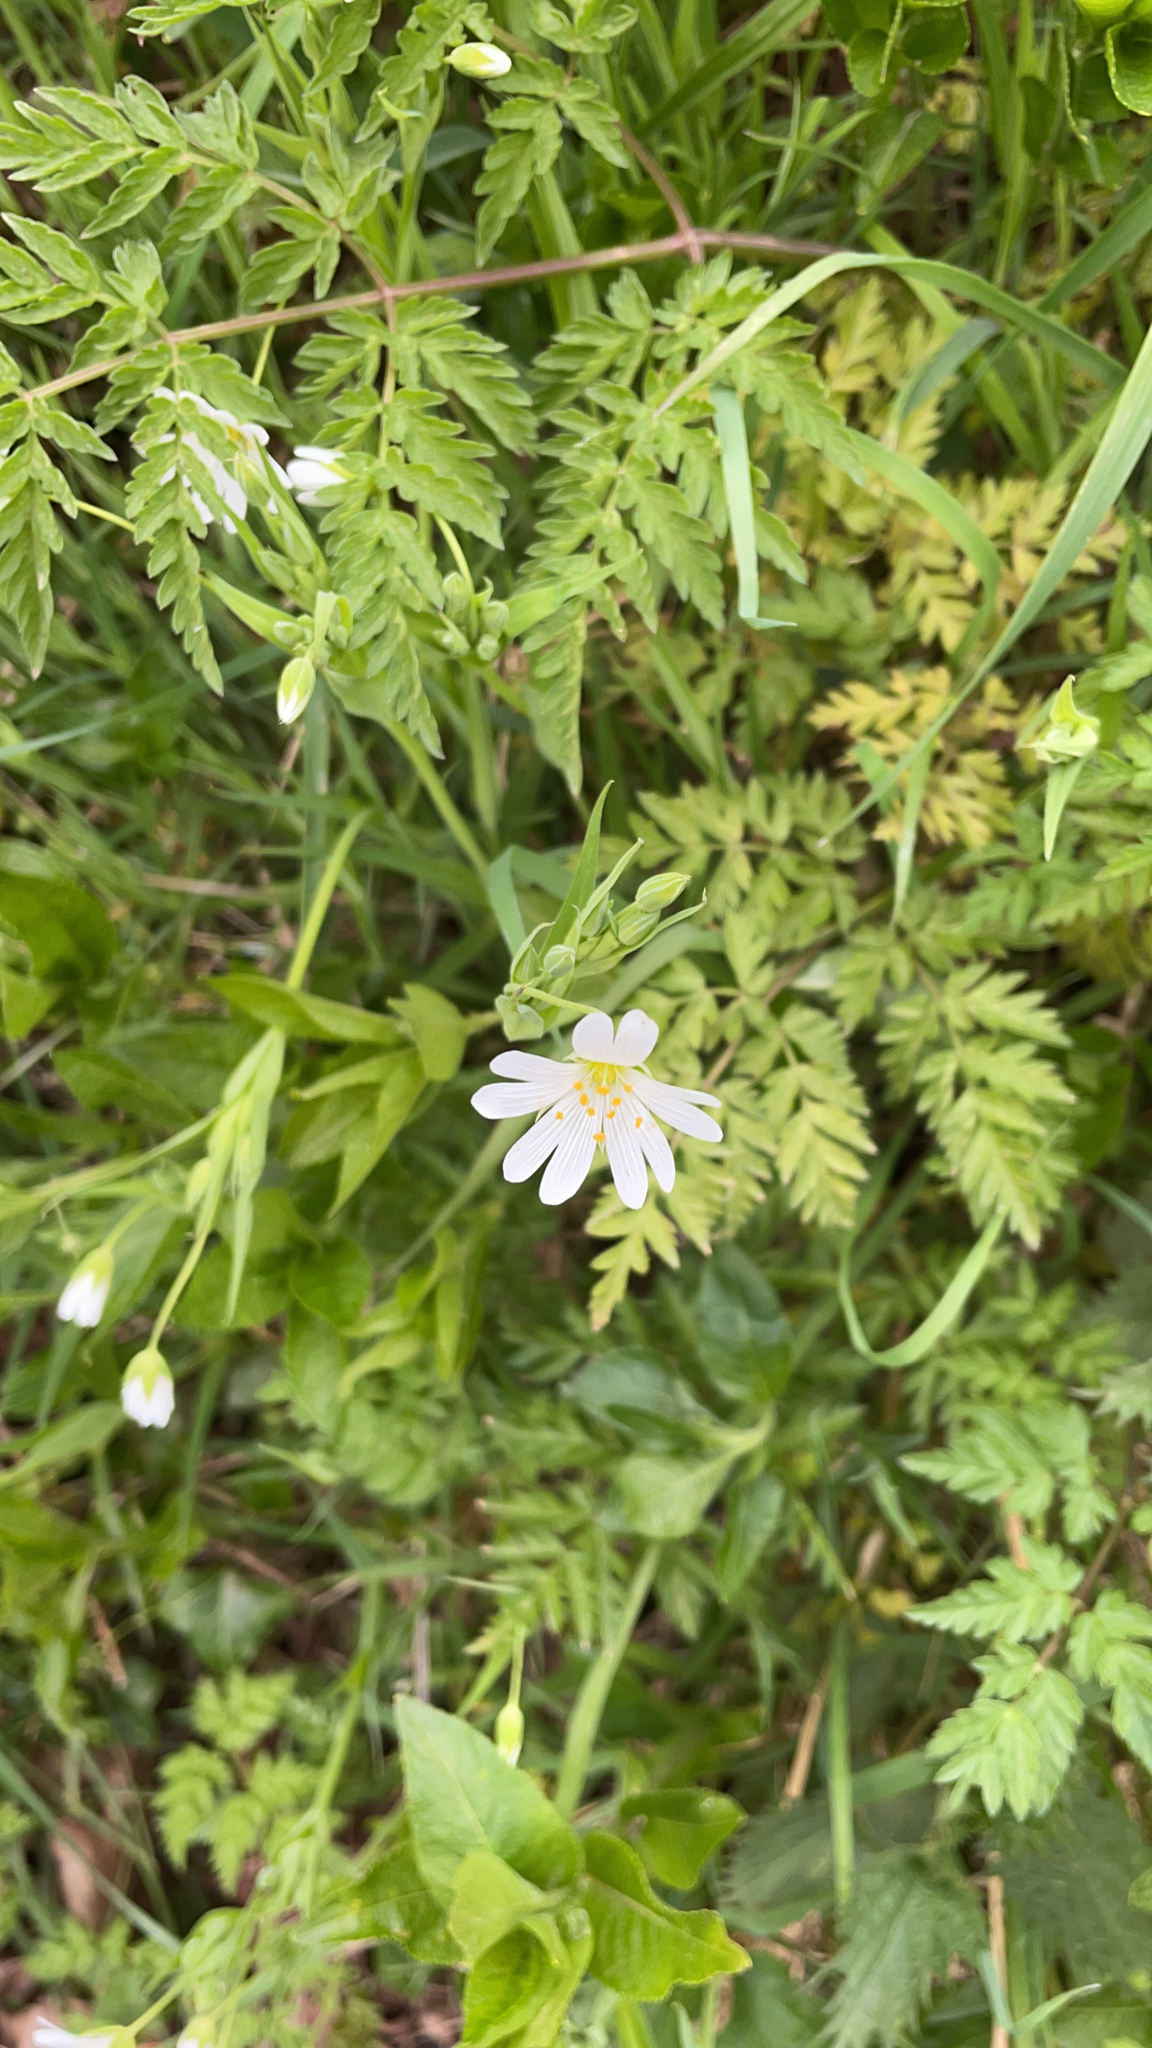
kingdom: Plantae
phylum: Tracheophyta
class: Magnoliopsida
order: Caryophyllales
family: Caryophyllaceae
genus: Rabelera
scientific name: Rabelera holostea
